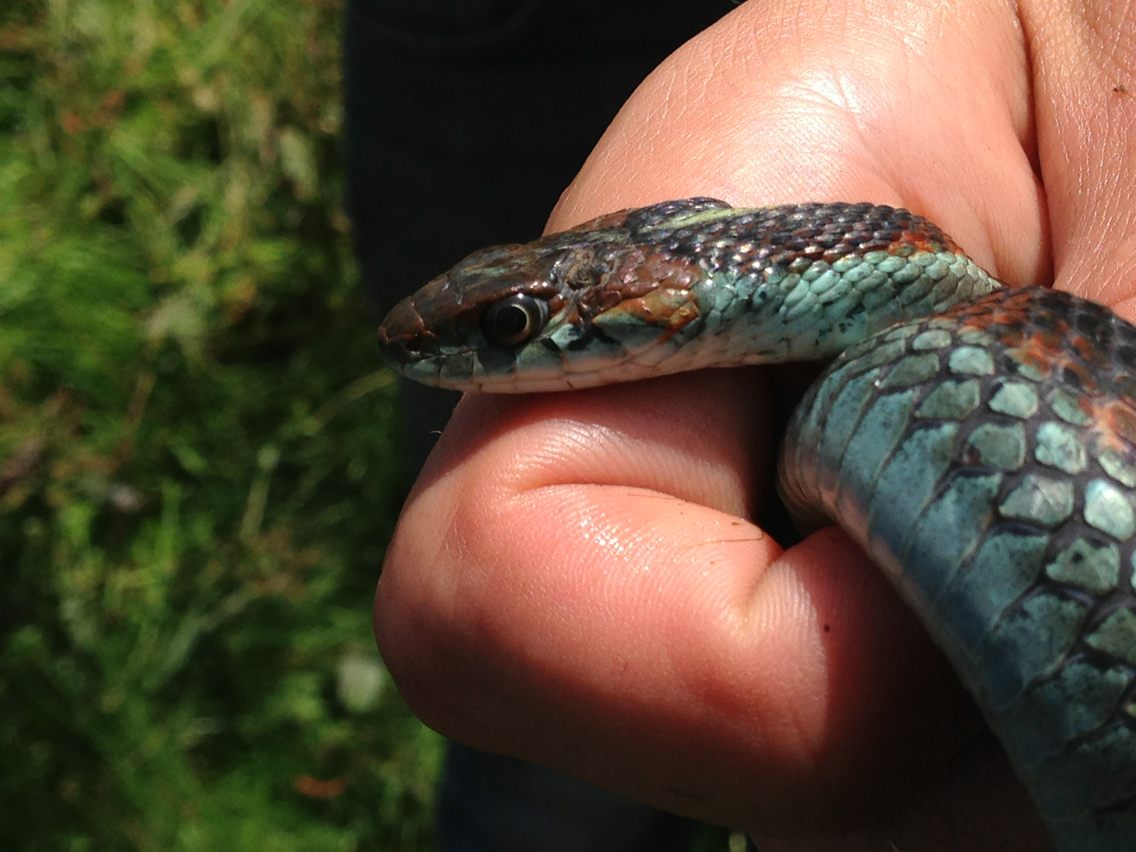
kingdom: Animalia
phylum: Chordata
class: Squamata
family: Colubridae
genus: Thamnophis
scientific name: Thamnophis sirtalis
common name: Common garter snake
